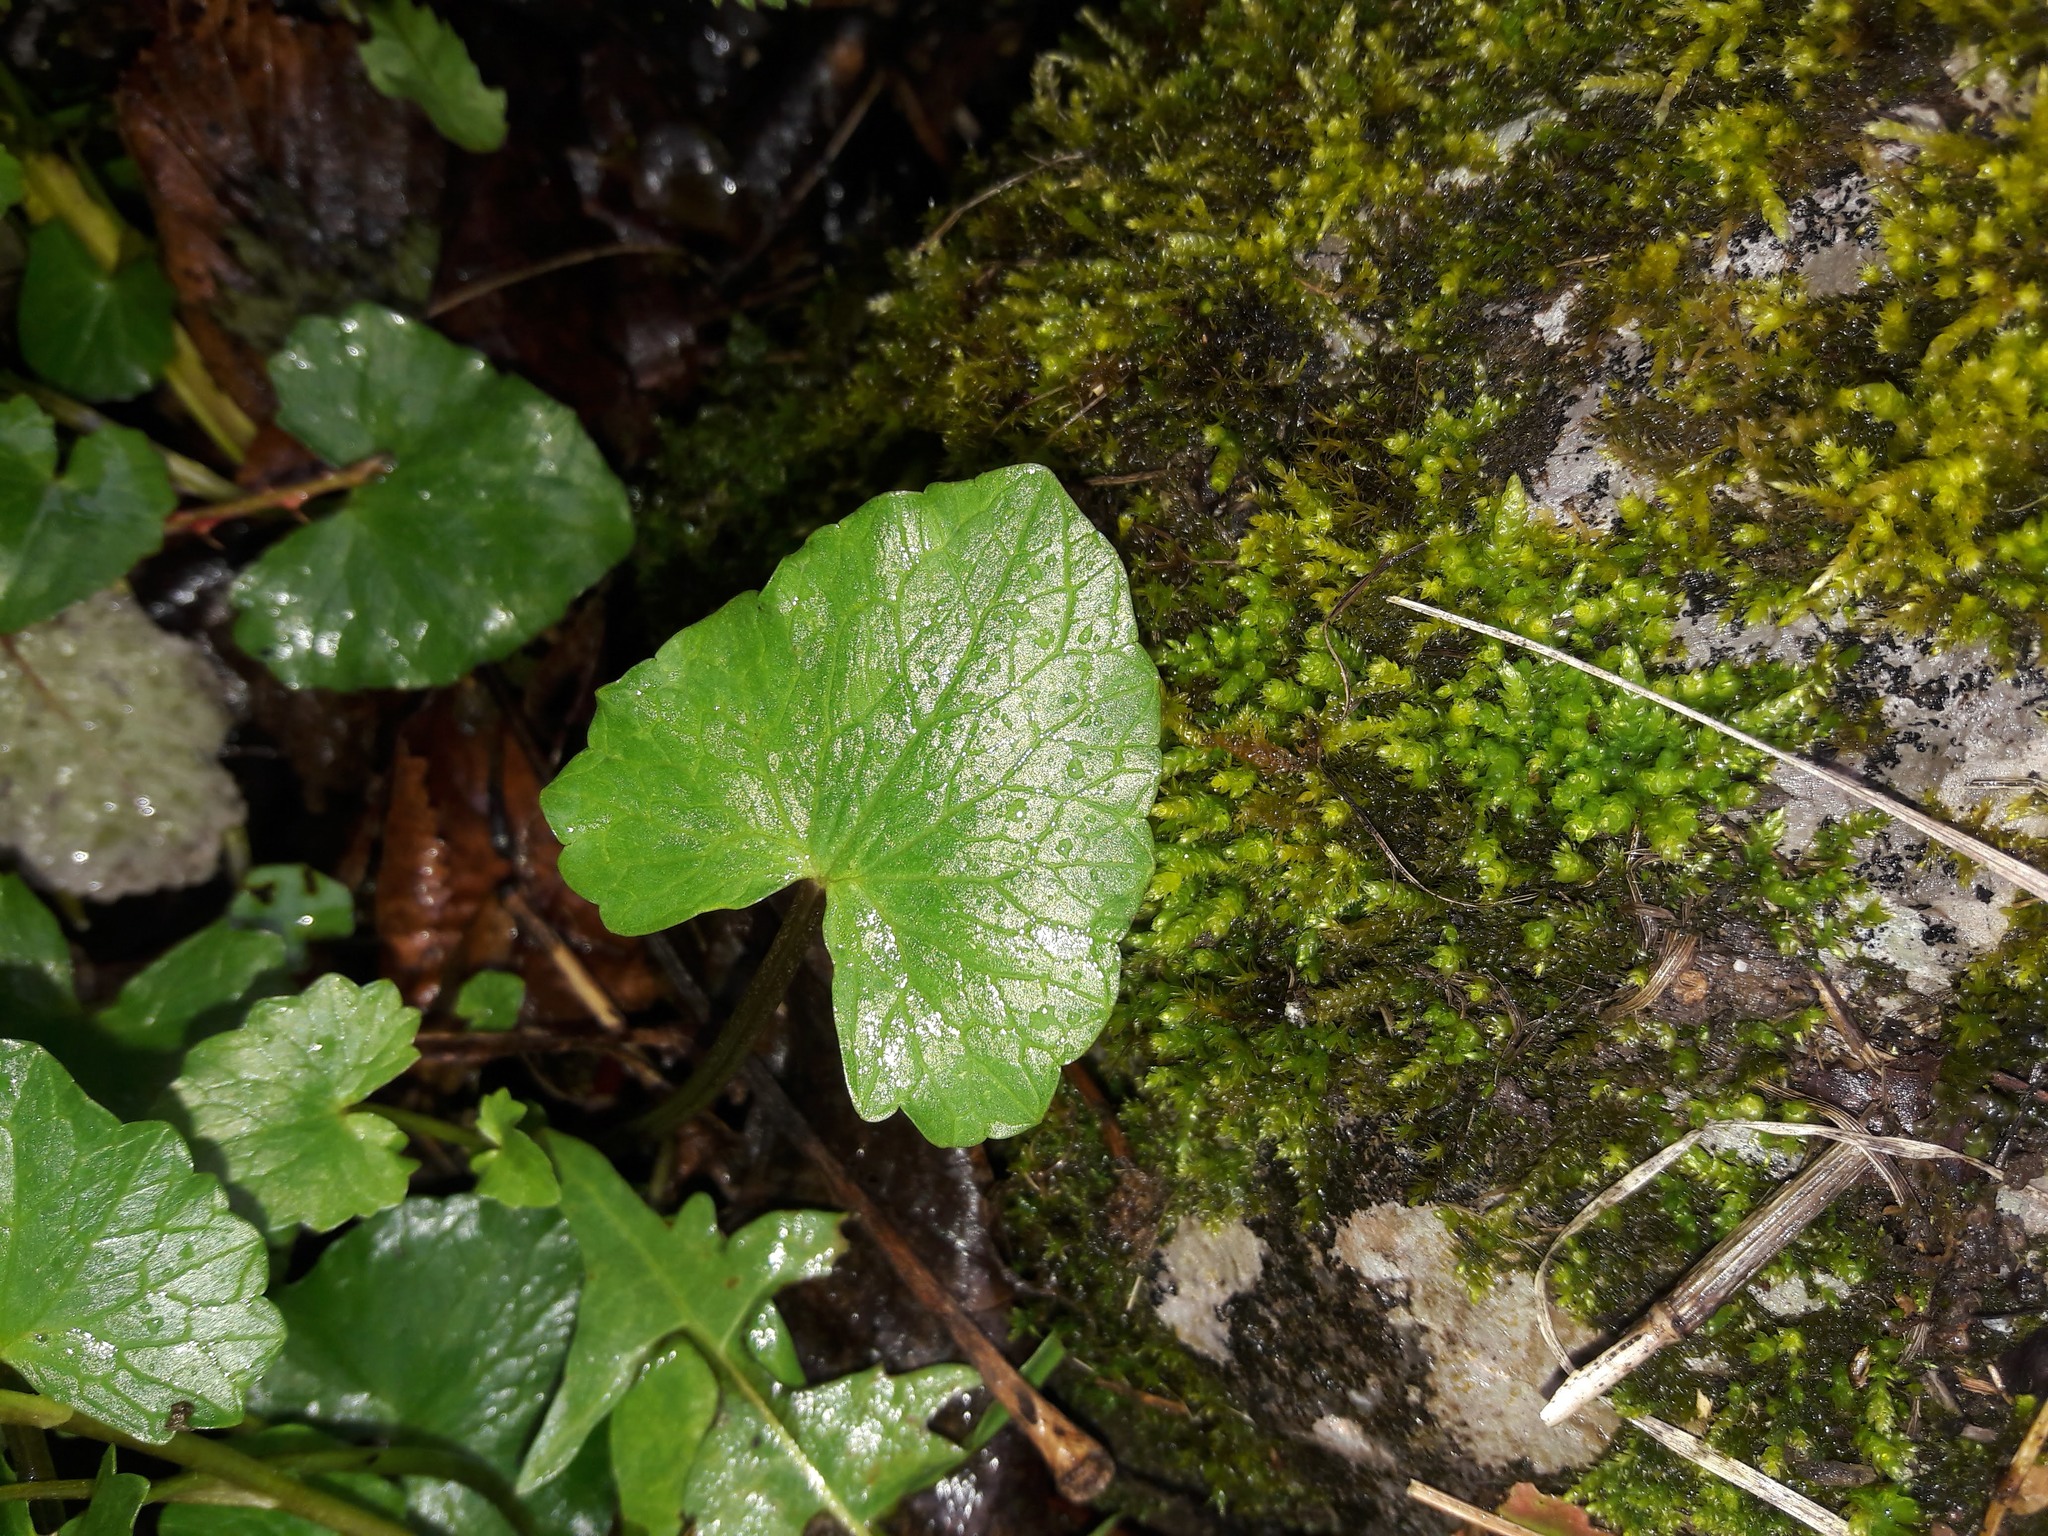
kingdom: Plantae
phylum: Tracheophyta
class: Magnoliopsida
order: Ranunculales
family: Ranunculaceae
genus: Ficaria
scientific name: Ficaria verna
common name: Lesser celandine
